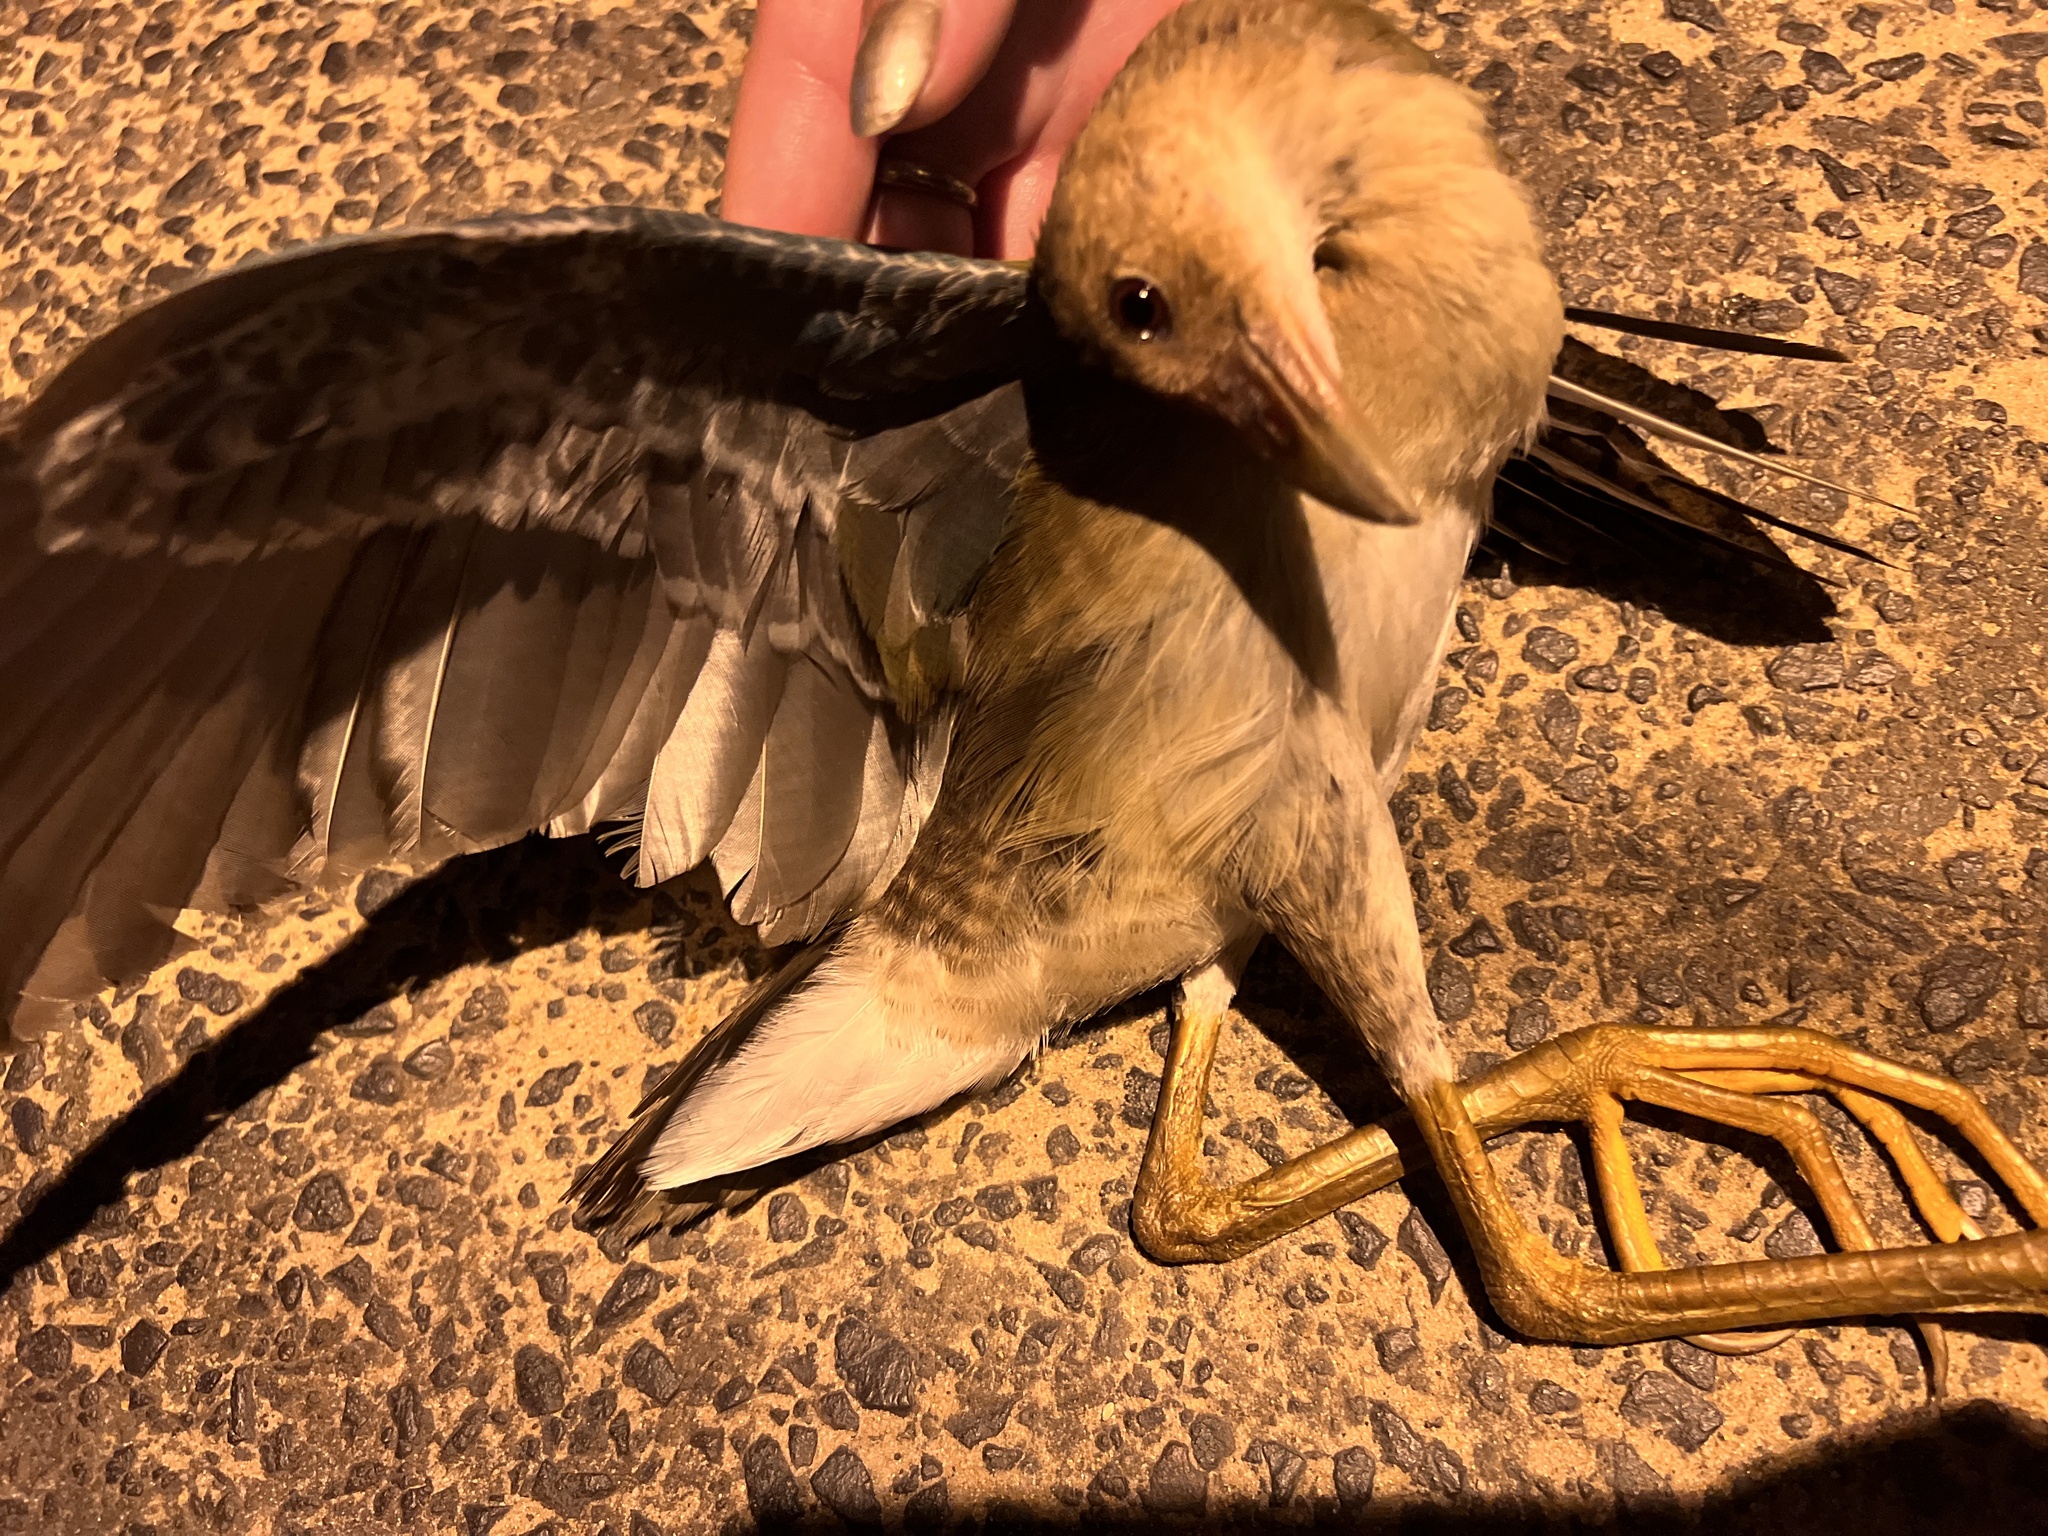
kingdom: Animalia
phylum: Chordata
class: Aves
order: Gruiformes
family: Rallidae
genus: Porphyrio
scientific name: Porphyrio martinica
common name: Purple gallinule
